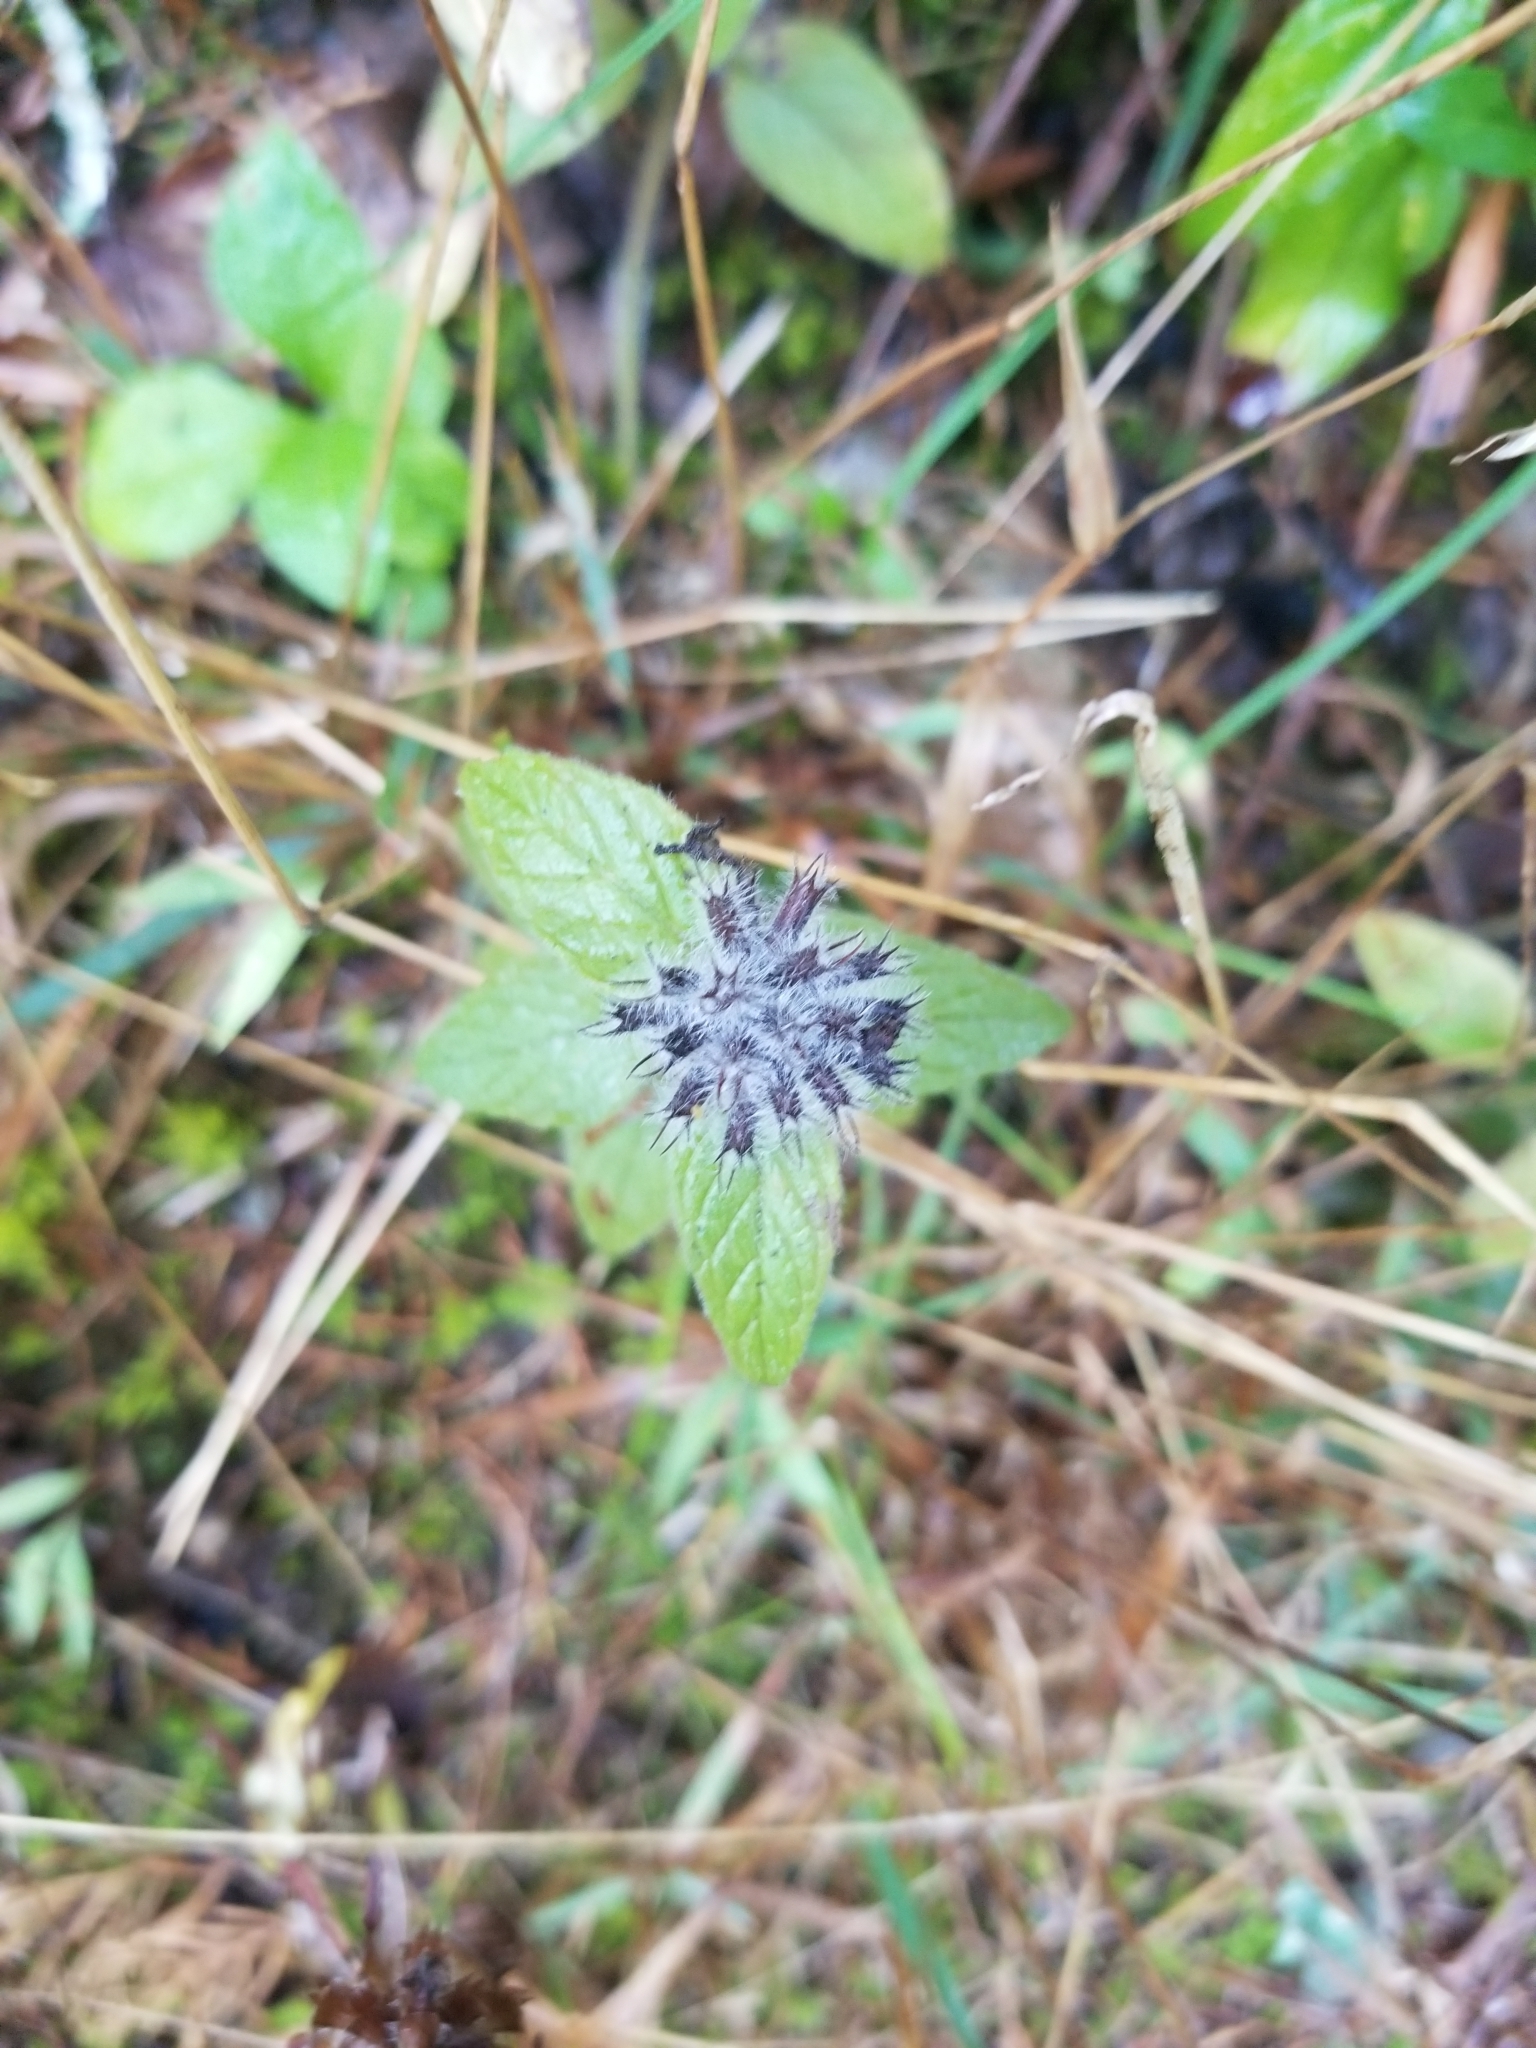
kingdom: Plantae
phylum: Tracheophyta
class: Magnoliopsida
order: Lamiales
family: Lamiaceae
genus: Clinopodium
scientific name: Clinopodium vulgare
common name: Wild basil
